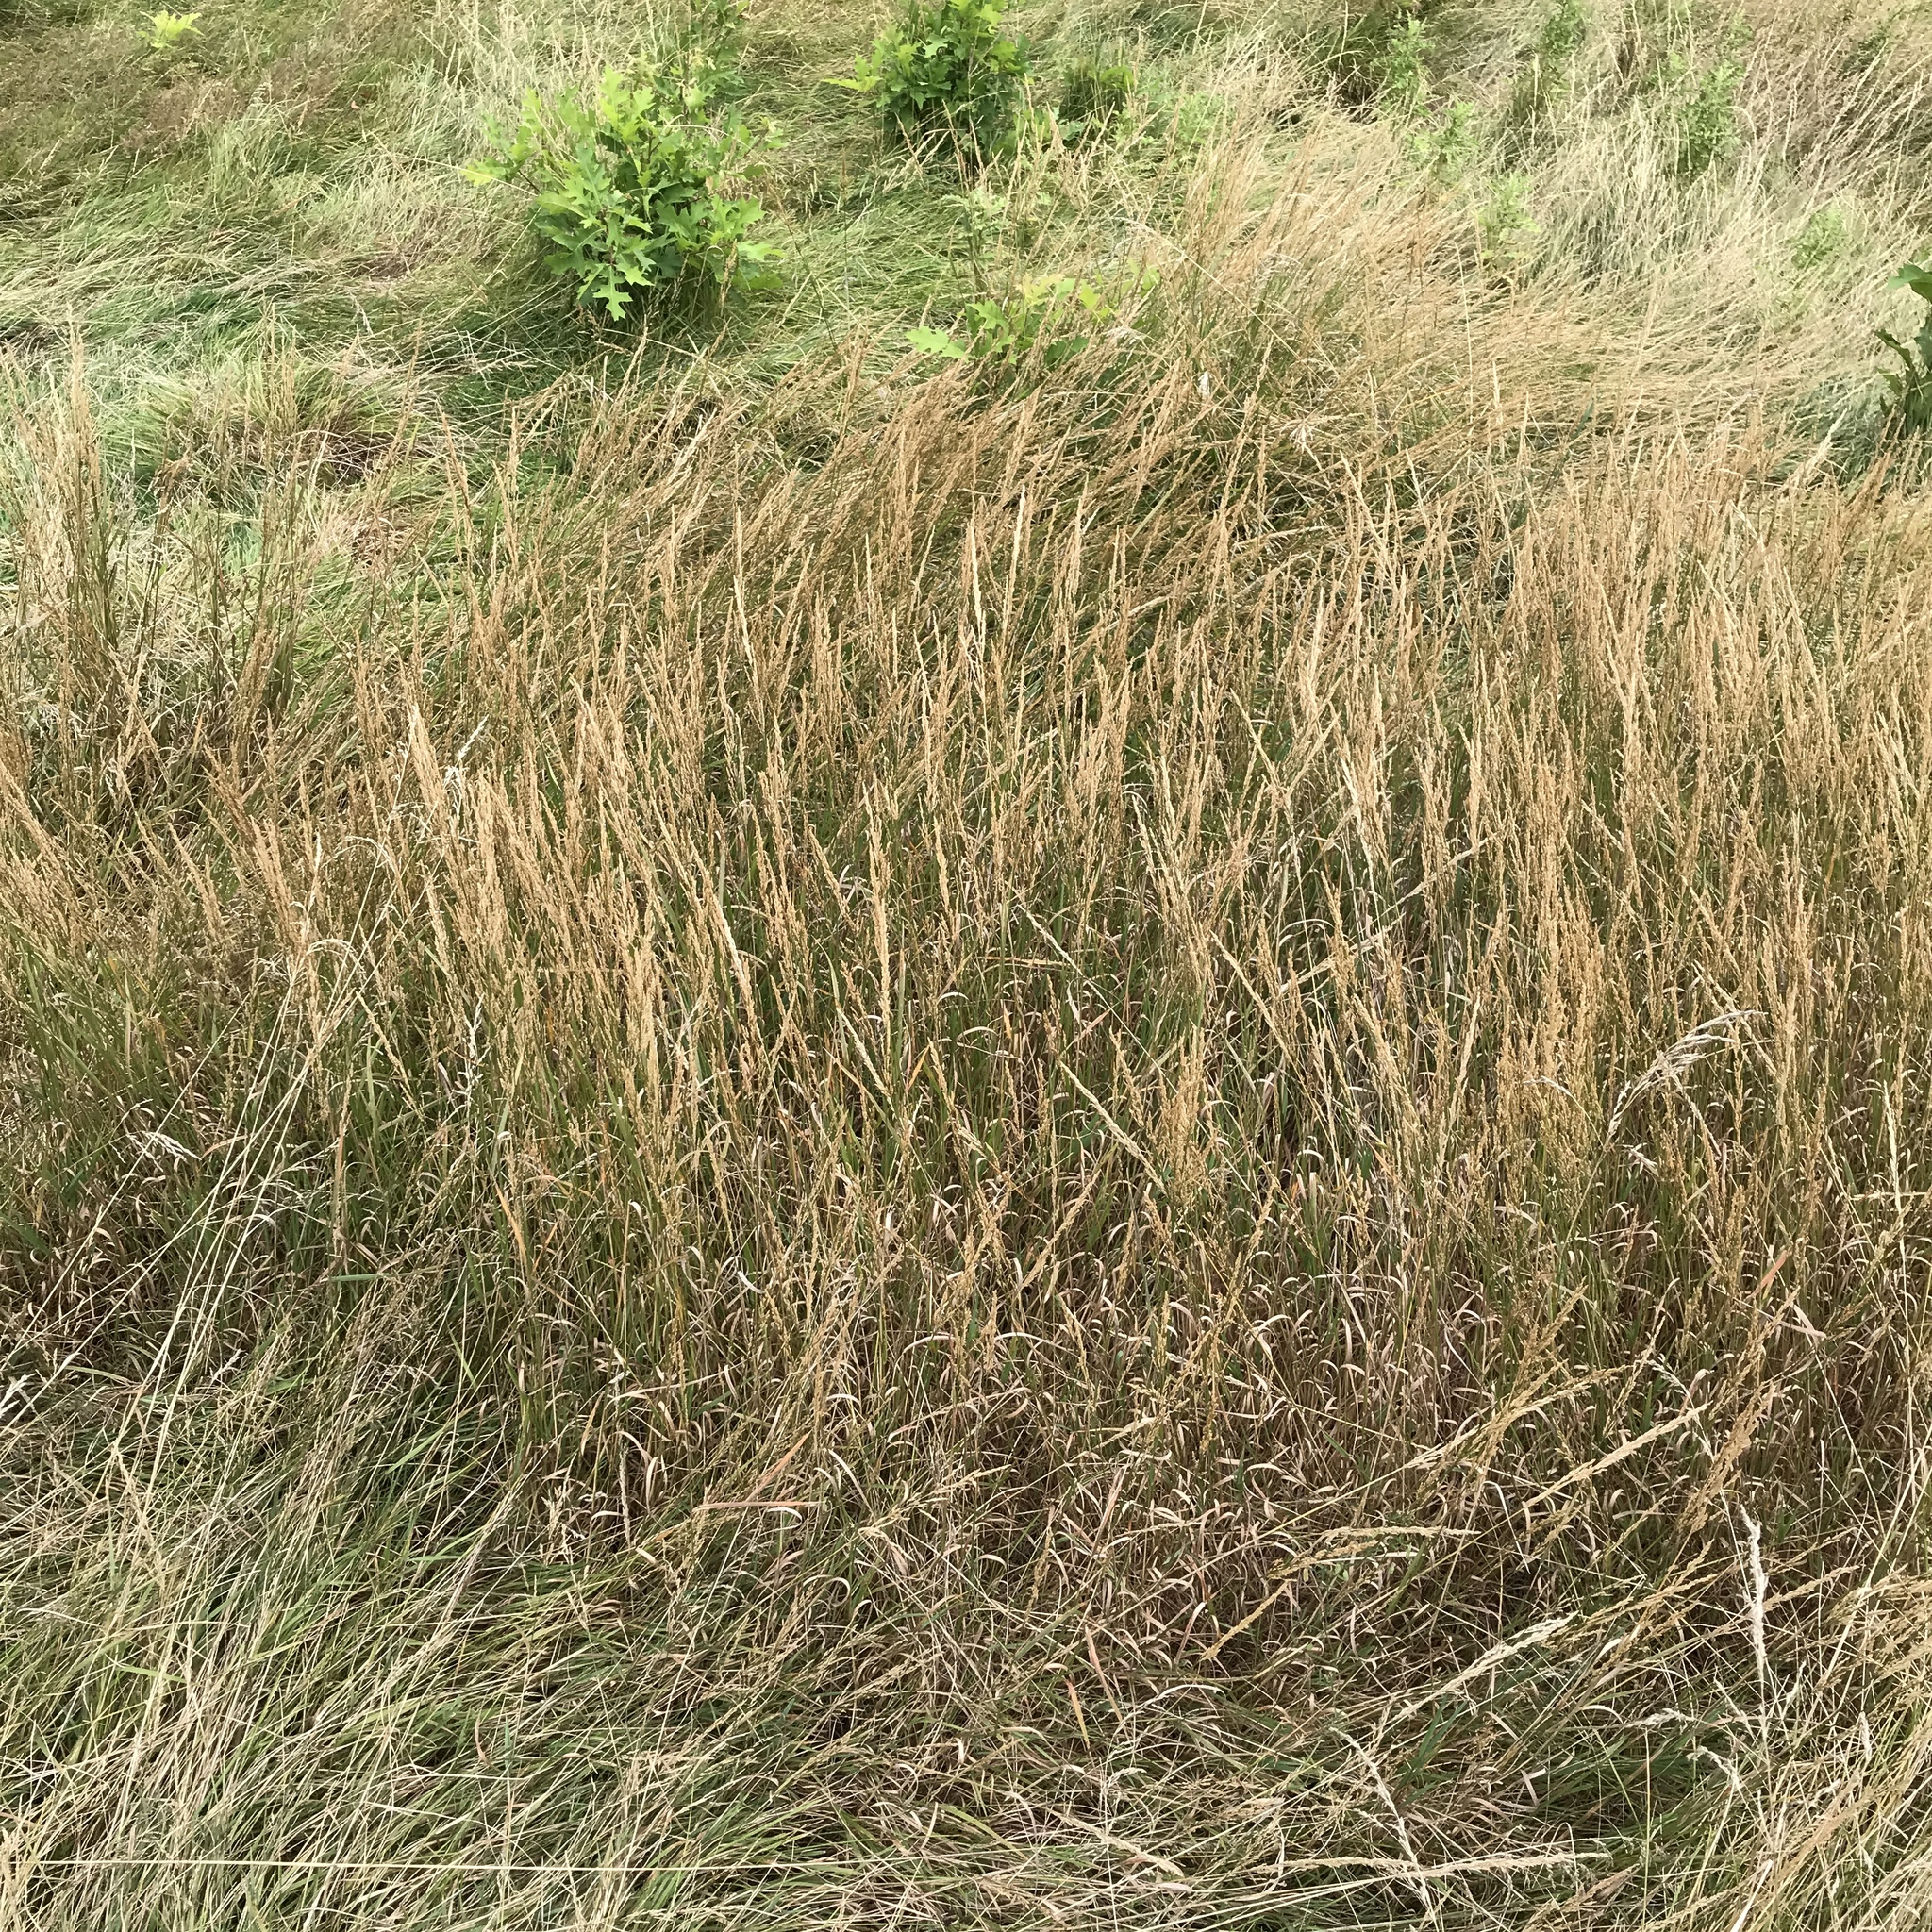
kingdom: Plantae
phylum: Tracheophyta
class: Liliopsida
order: Poales
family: Poaceae
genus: Agrostis
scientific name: Agrostis stolonifera
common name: Creeping bentgrass
